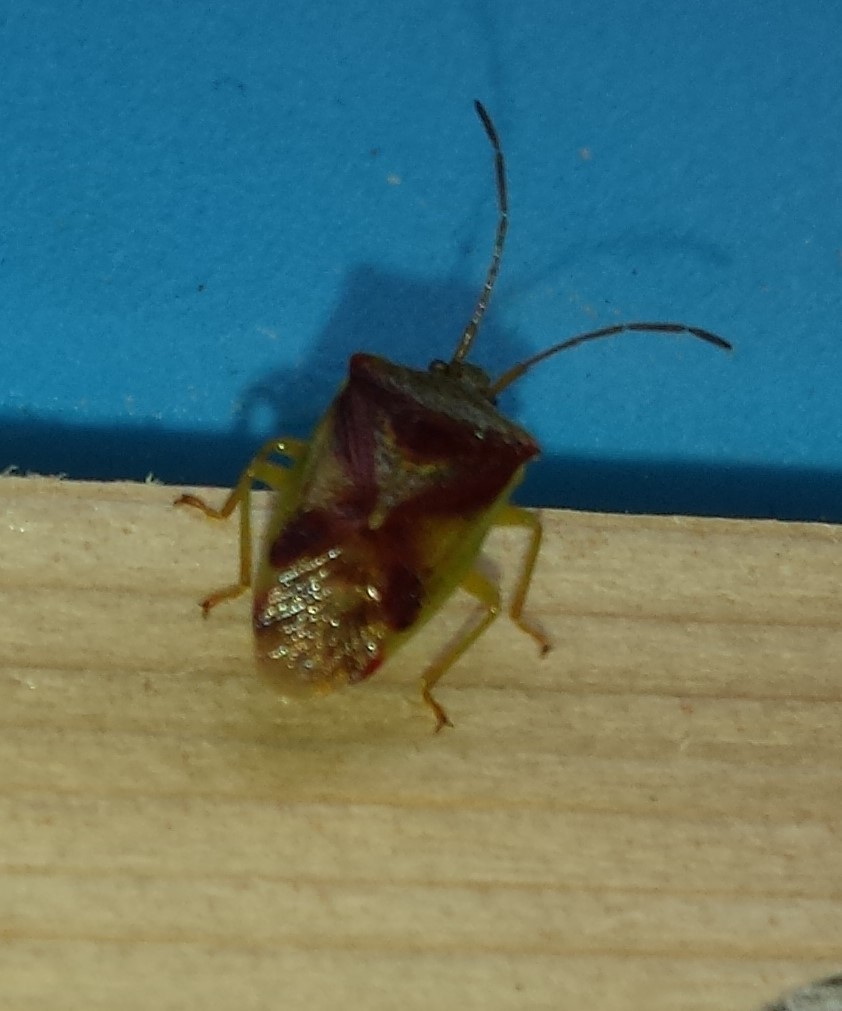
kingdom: Animalia
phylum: Arthropoda
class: Insecta
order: Hemiptera
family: Acanthosomatidae
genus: Elasmostethus
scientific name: Elasmostethus cruciatus
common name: Red-cross shield bug
